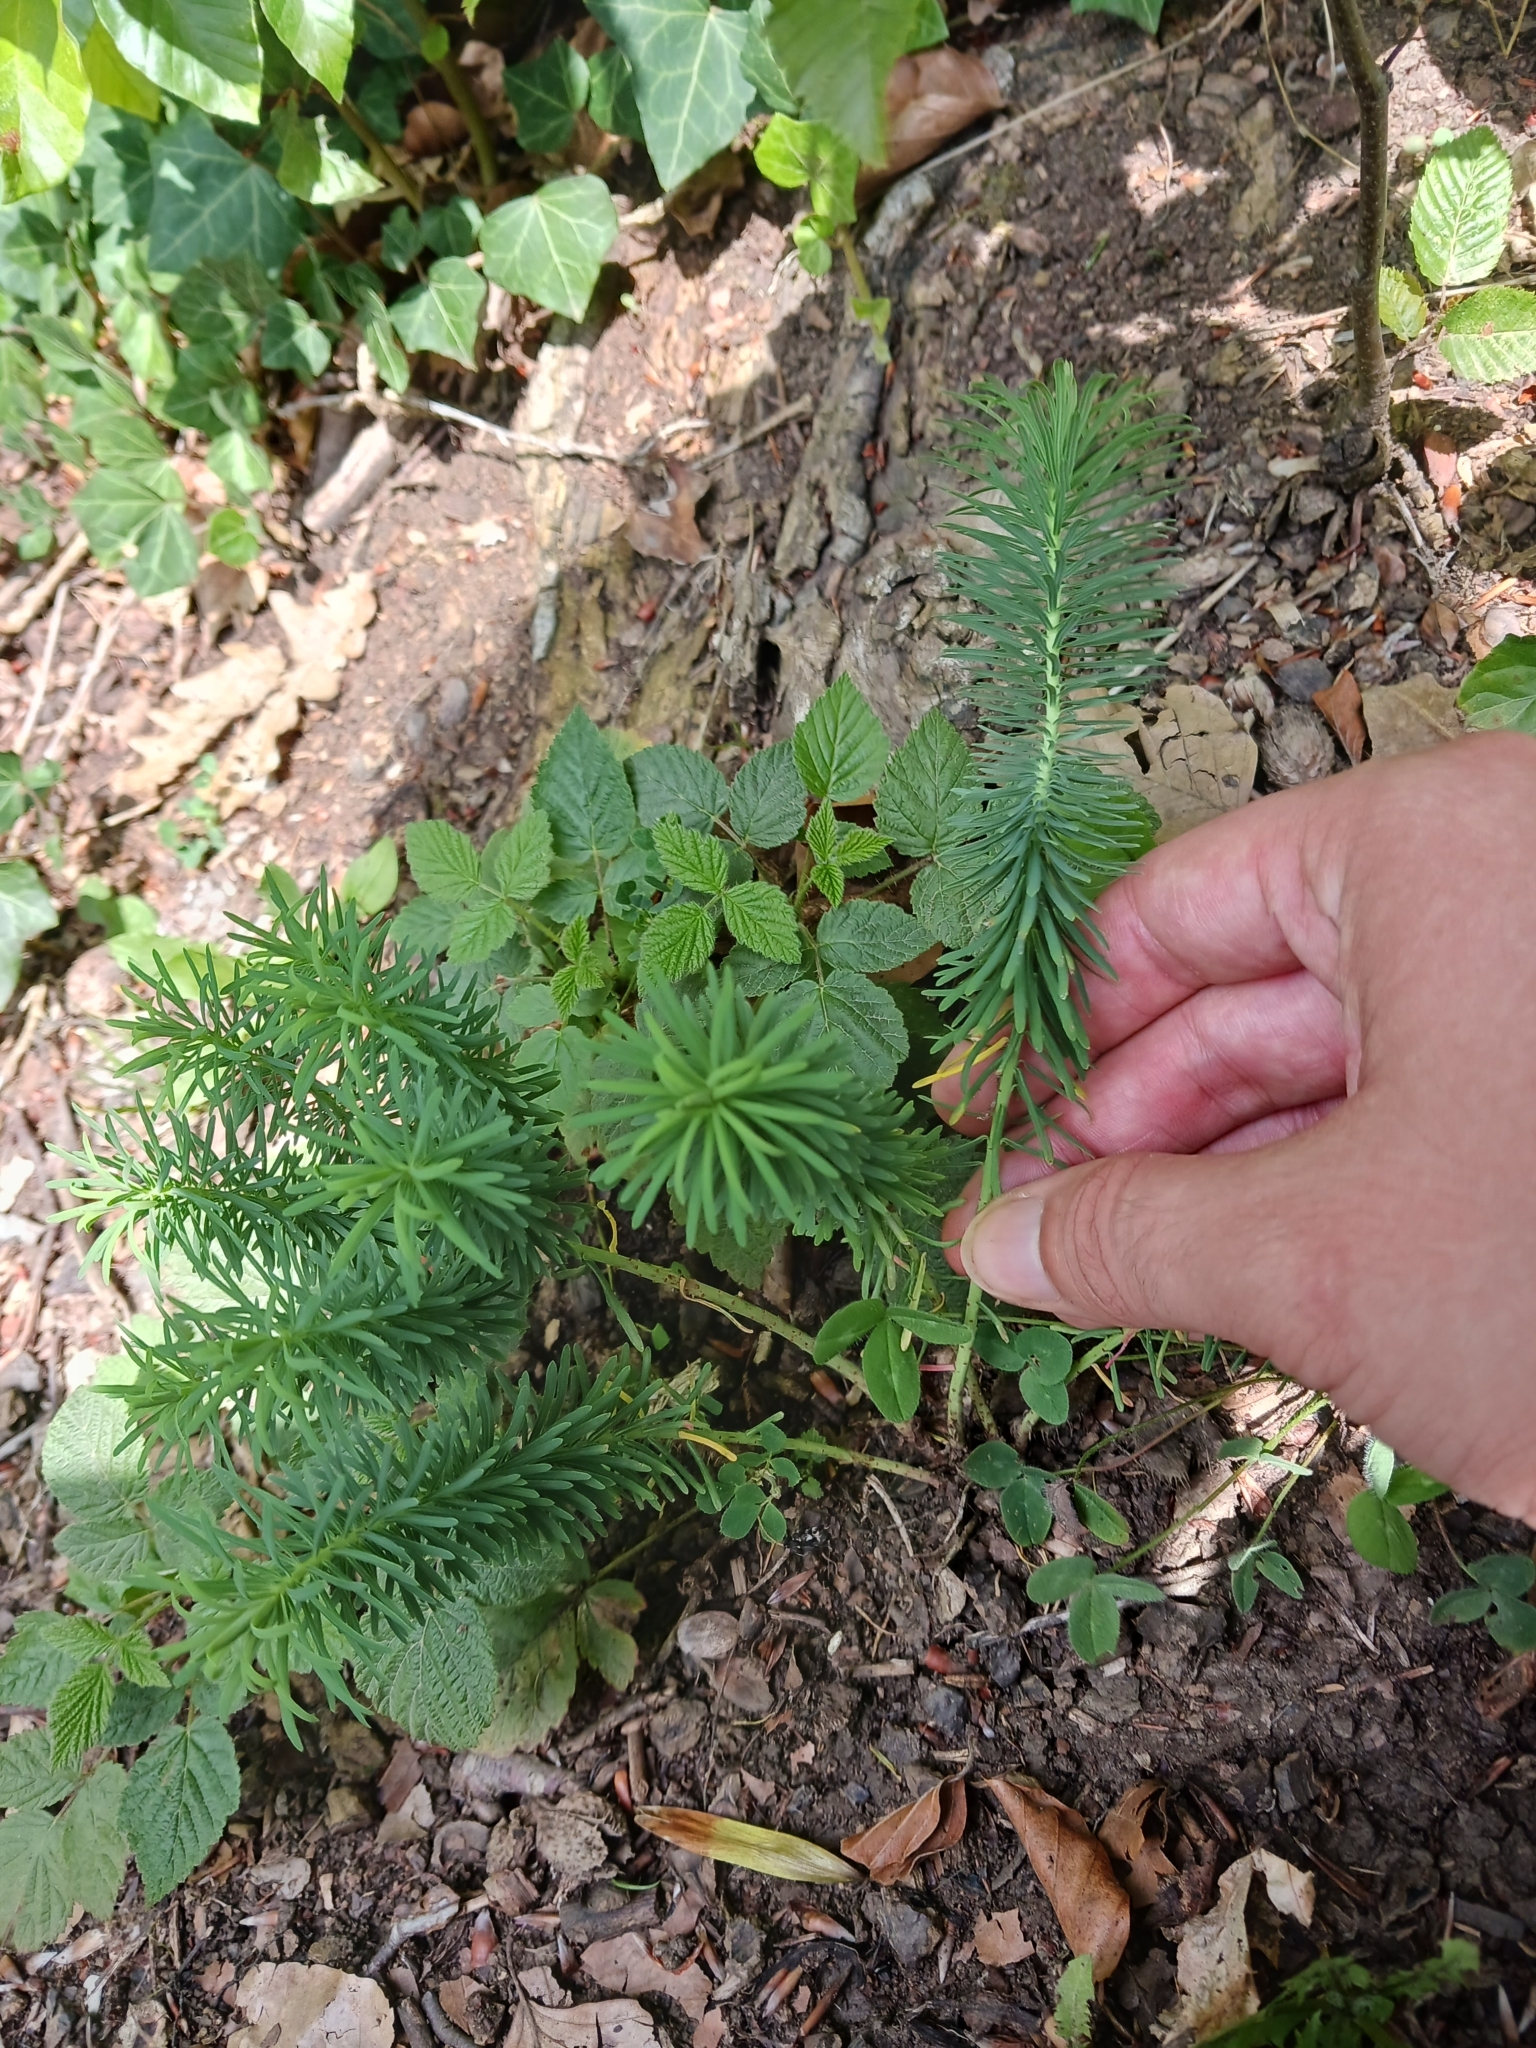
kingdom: Plantae
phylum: Tracheophyta
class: Magnoliopsida
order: Malpighiales
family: Euphorbiaceae
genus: Euphorbia
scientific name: Euphorbia cyparissias
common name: Cypress spurge
